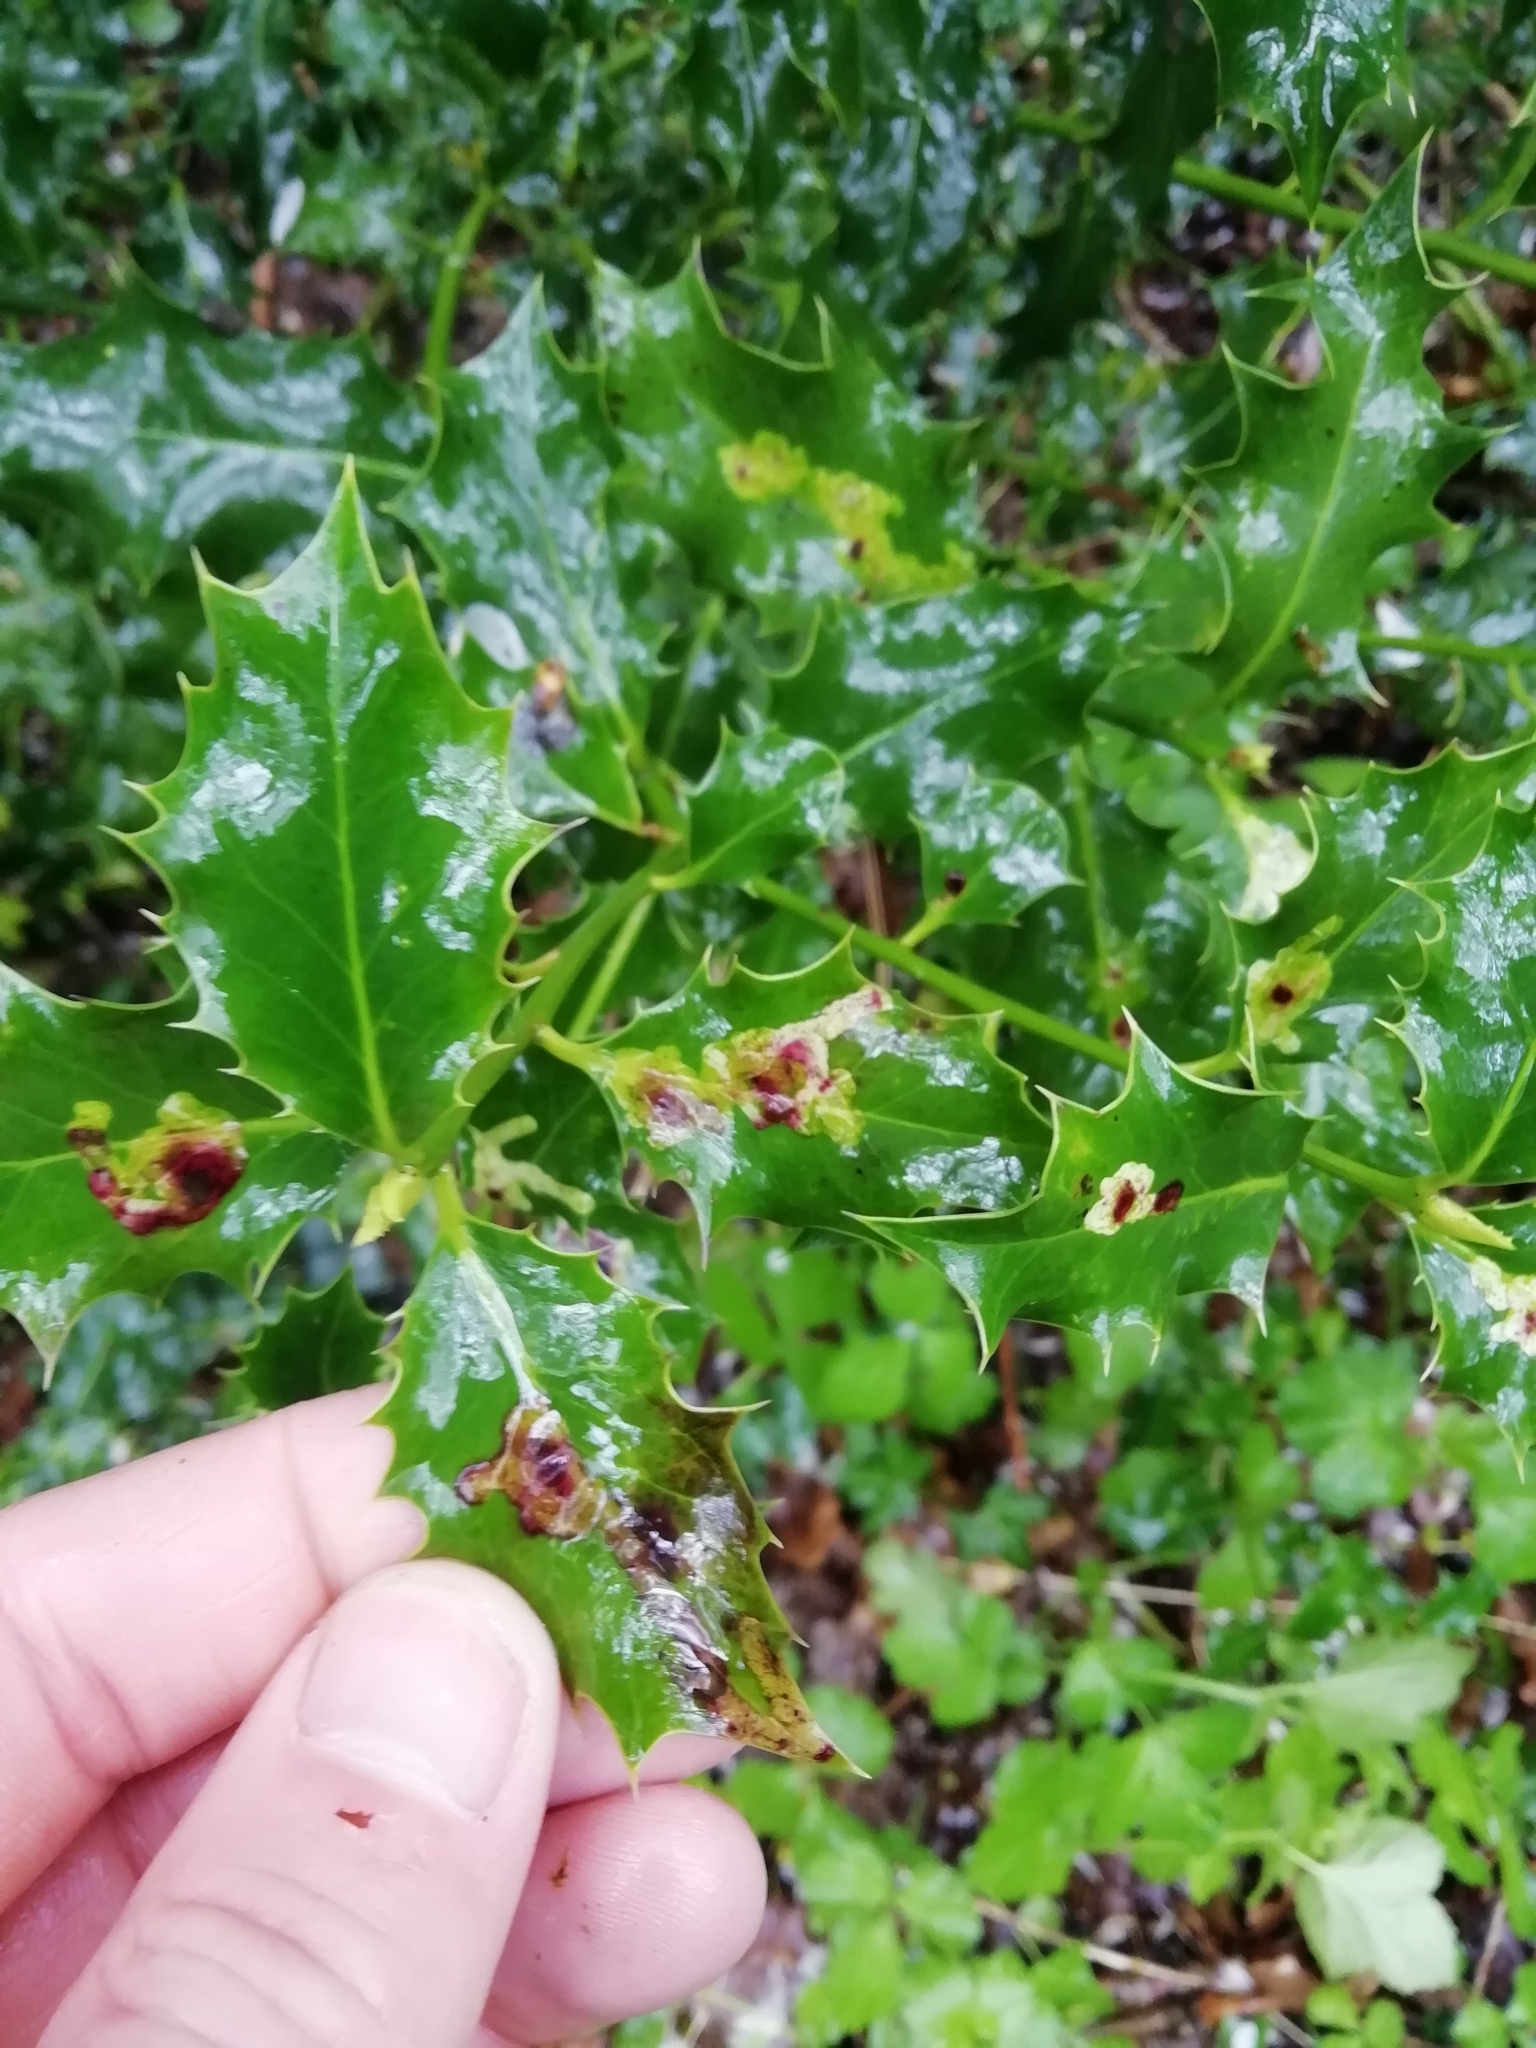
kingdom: Animalia
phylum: Arthropoda
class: Insecta
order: Diptera
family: Agromyzidae
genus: Phytomyza
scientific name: Phytomyza ilicis
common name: Holly leafminer
